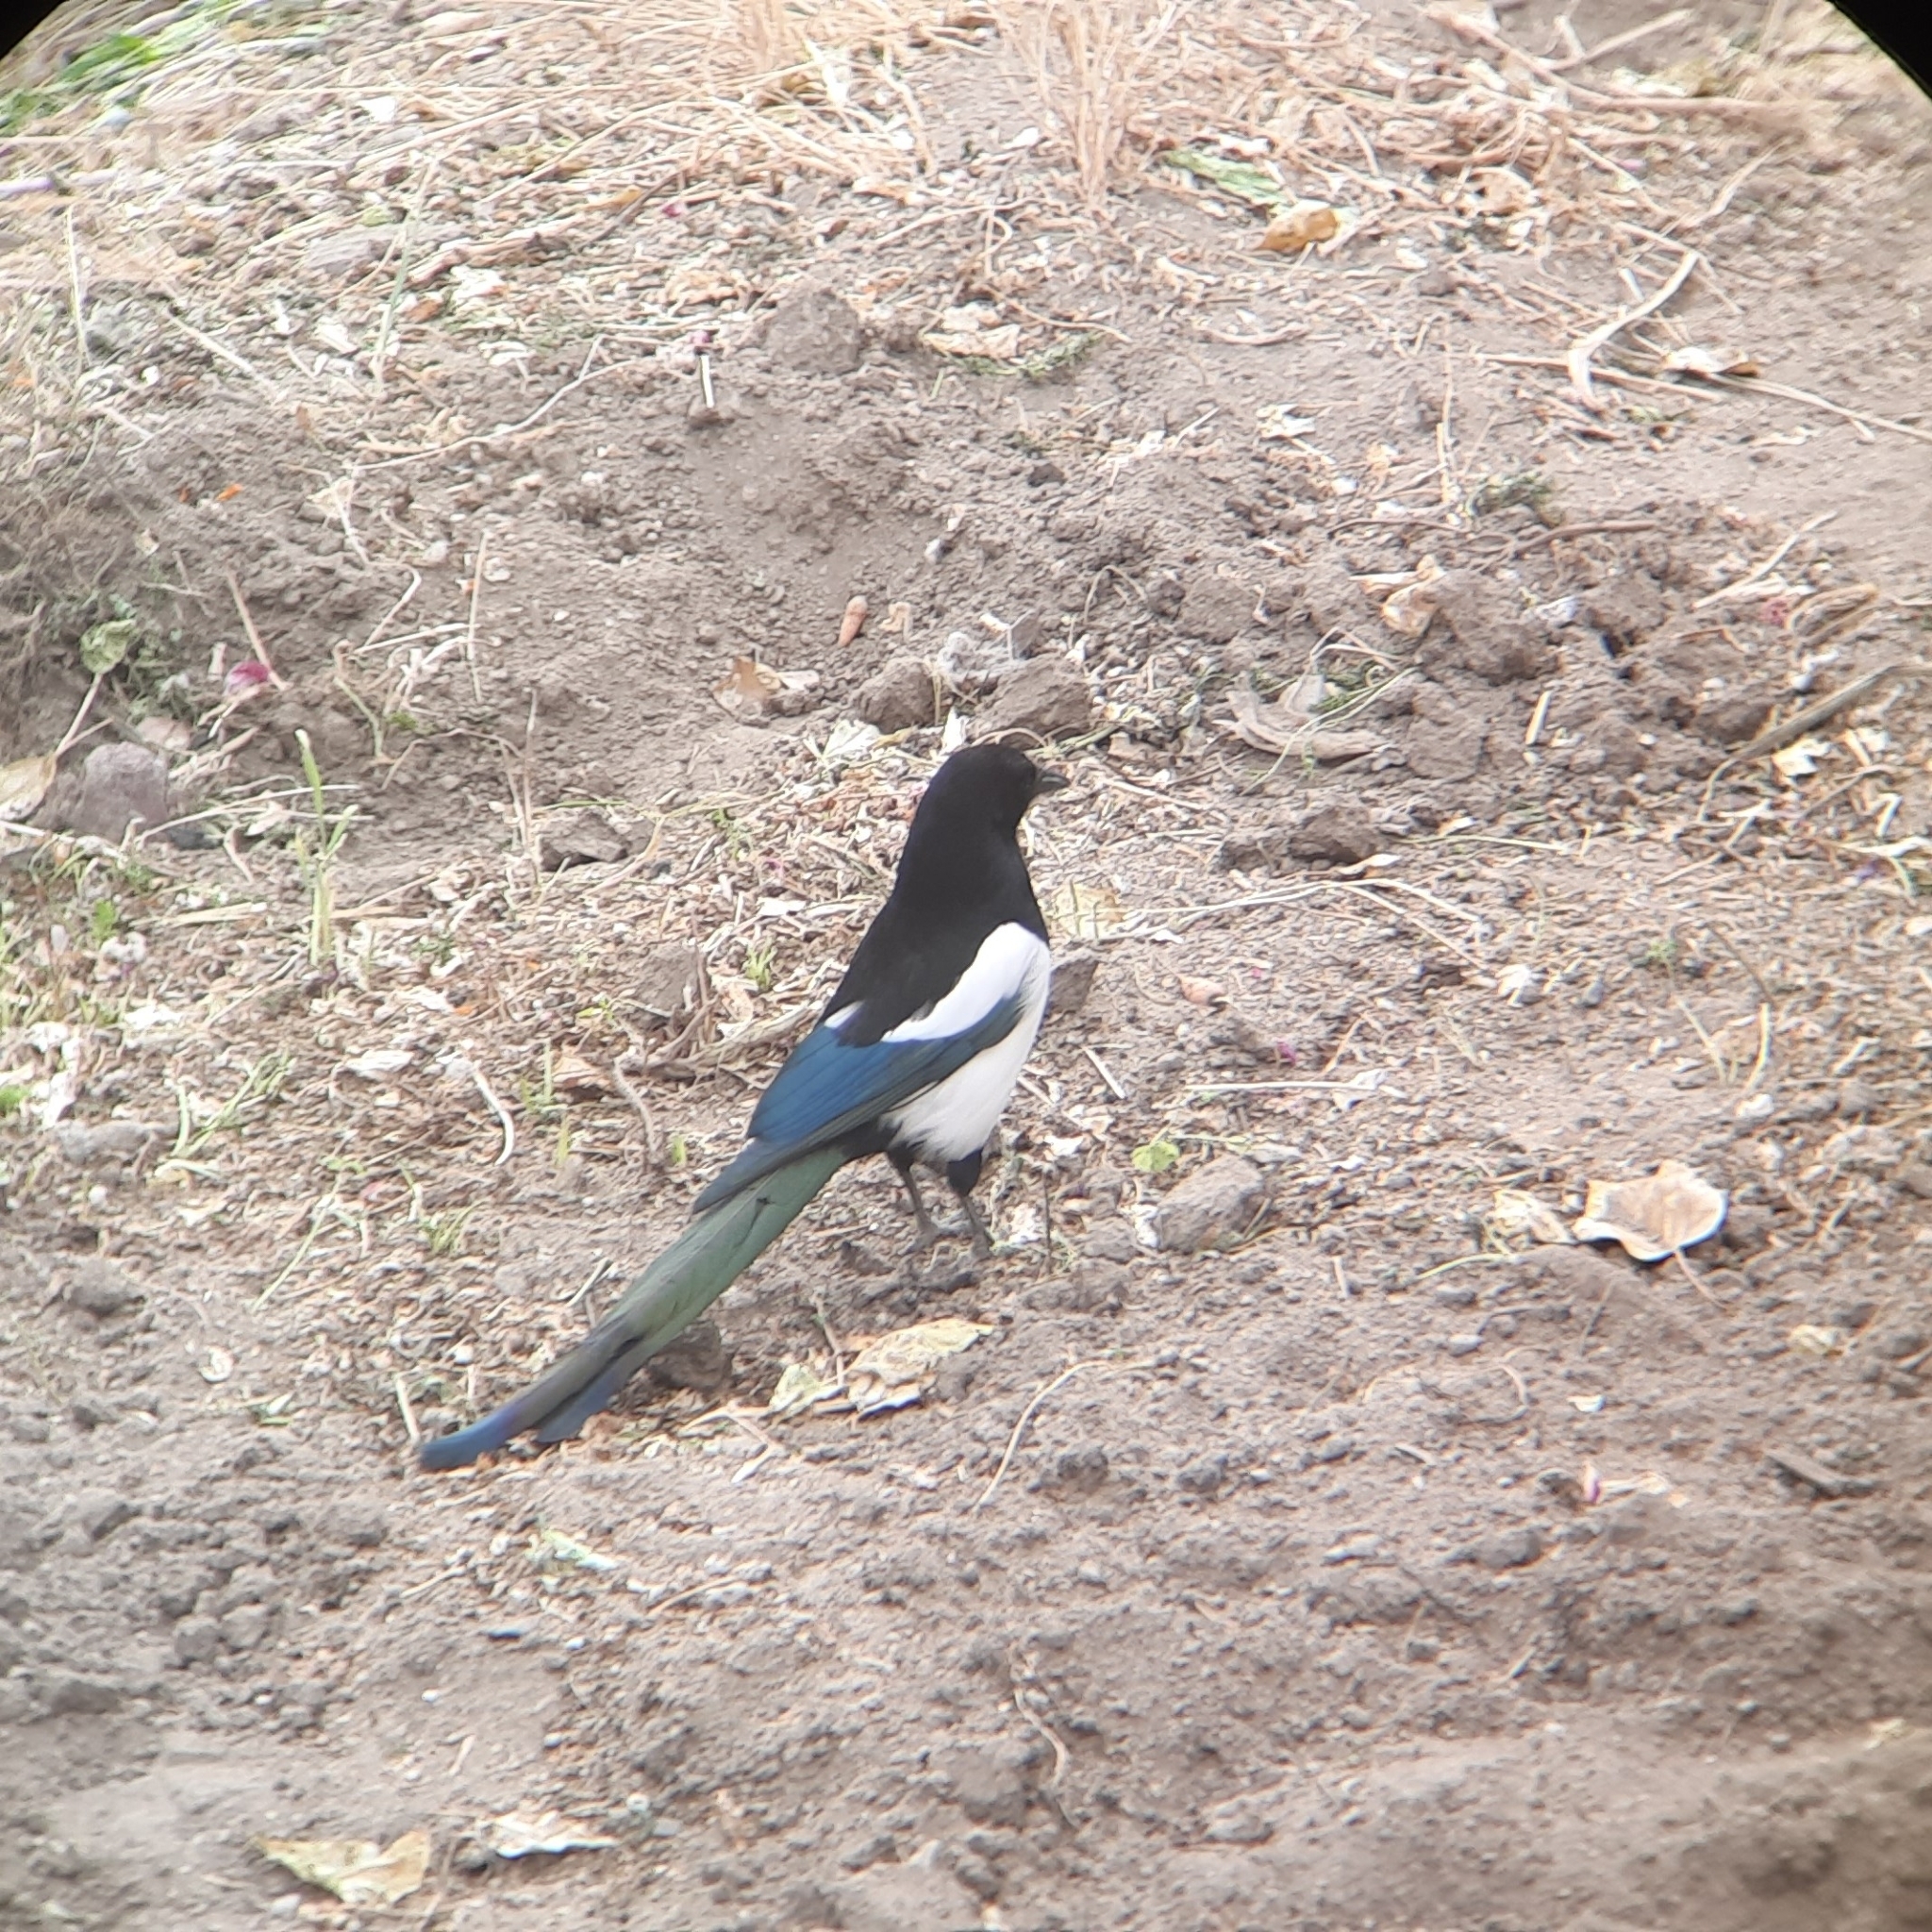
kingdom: Animalia
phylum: Chordata
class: Aves
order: Passeriformes
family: Corvidae
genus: Pica
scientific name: Pica pica
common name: Eurasian magpie
